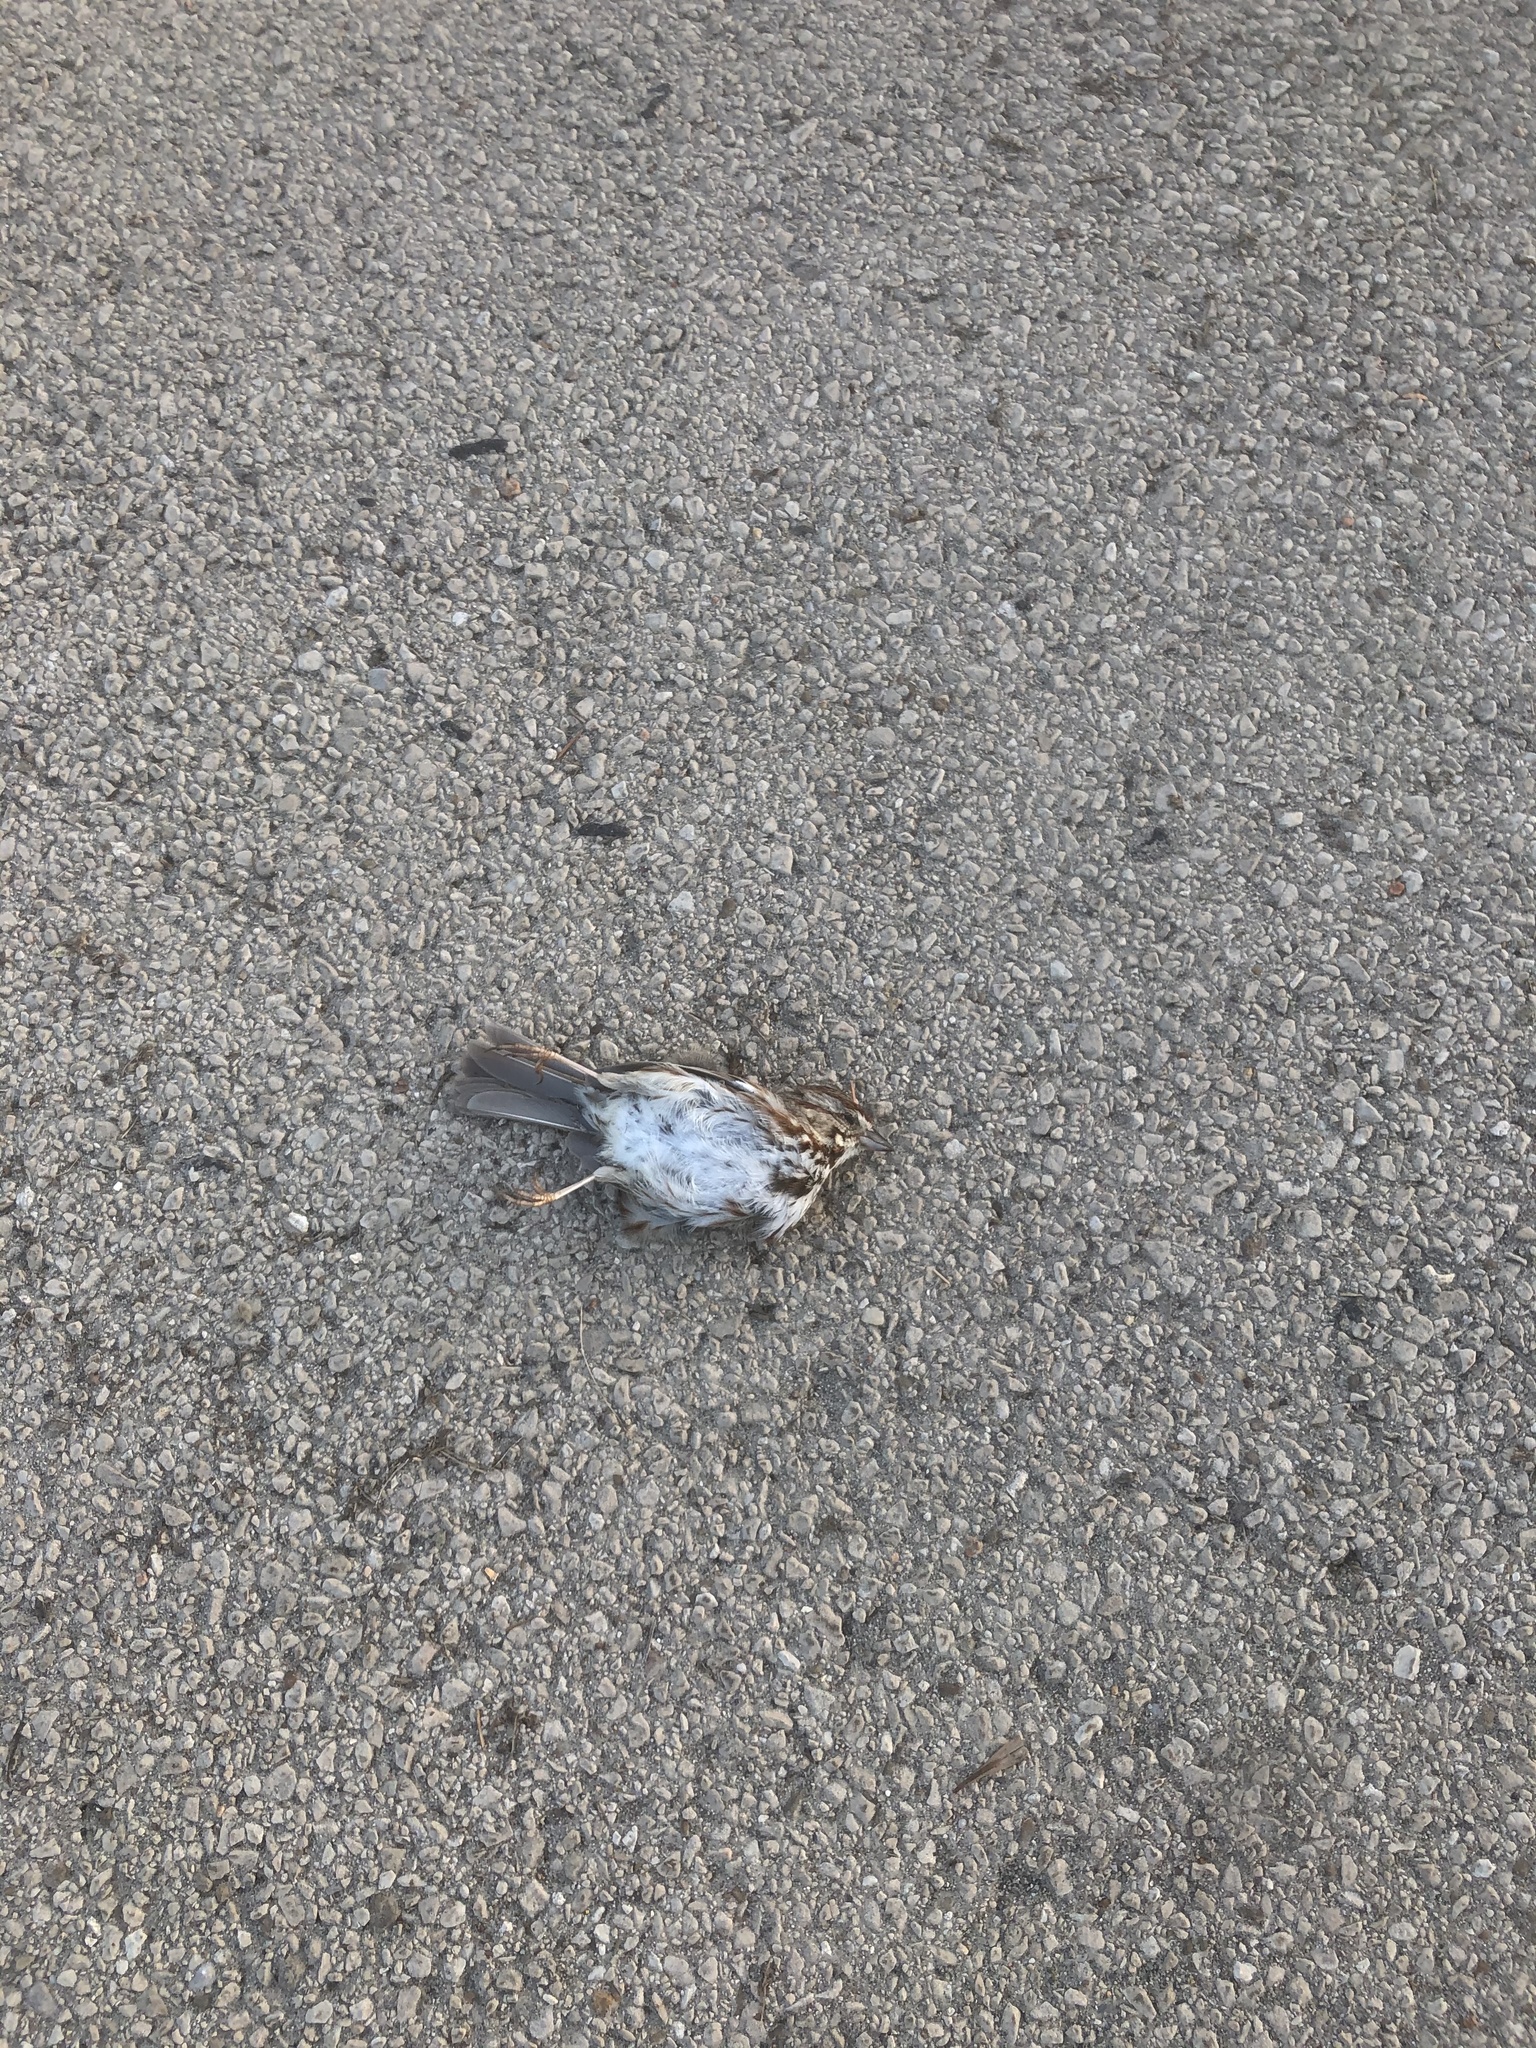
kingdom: Animalia
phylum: Chordata
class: Aves
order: Passeriformes
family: Passerellidae
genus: Melospiza
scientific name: Melospiza melodia
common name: Song sparrow
